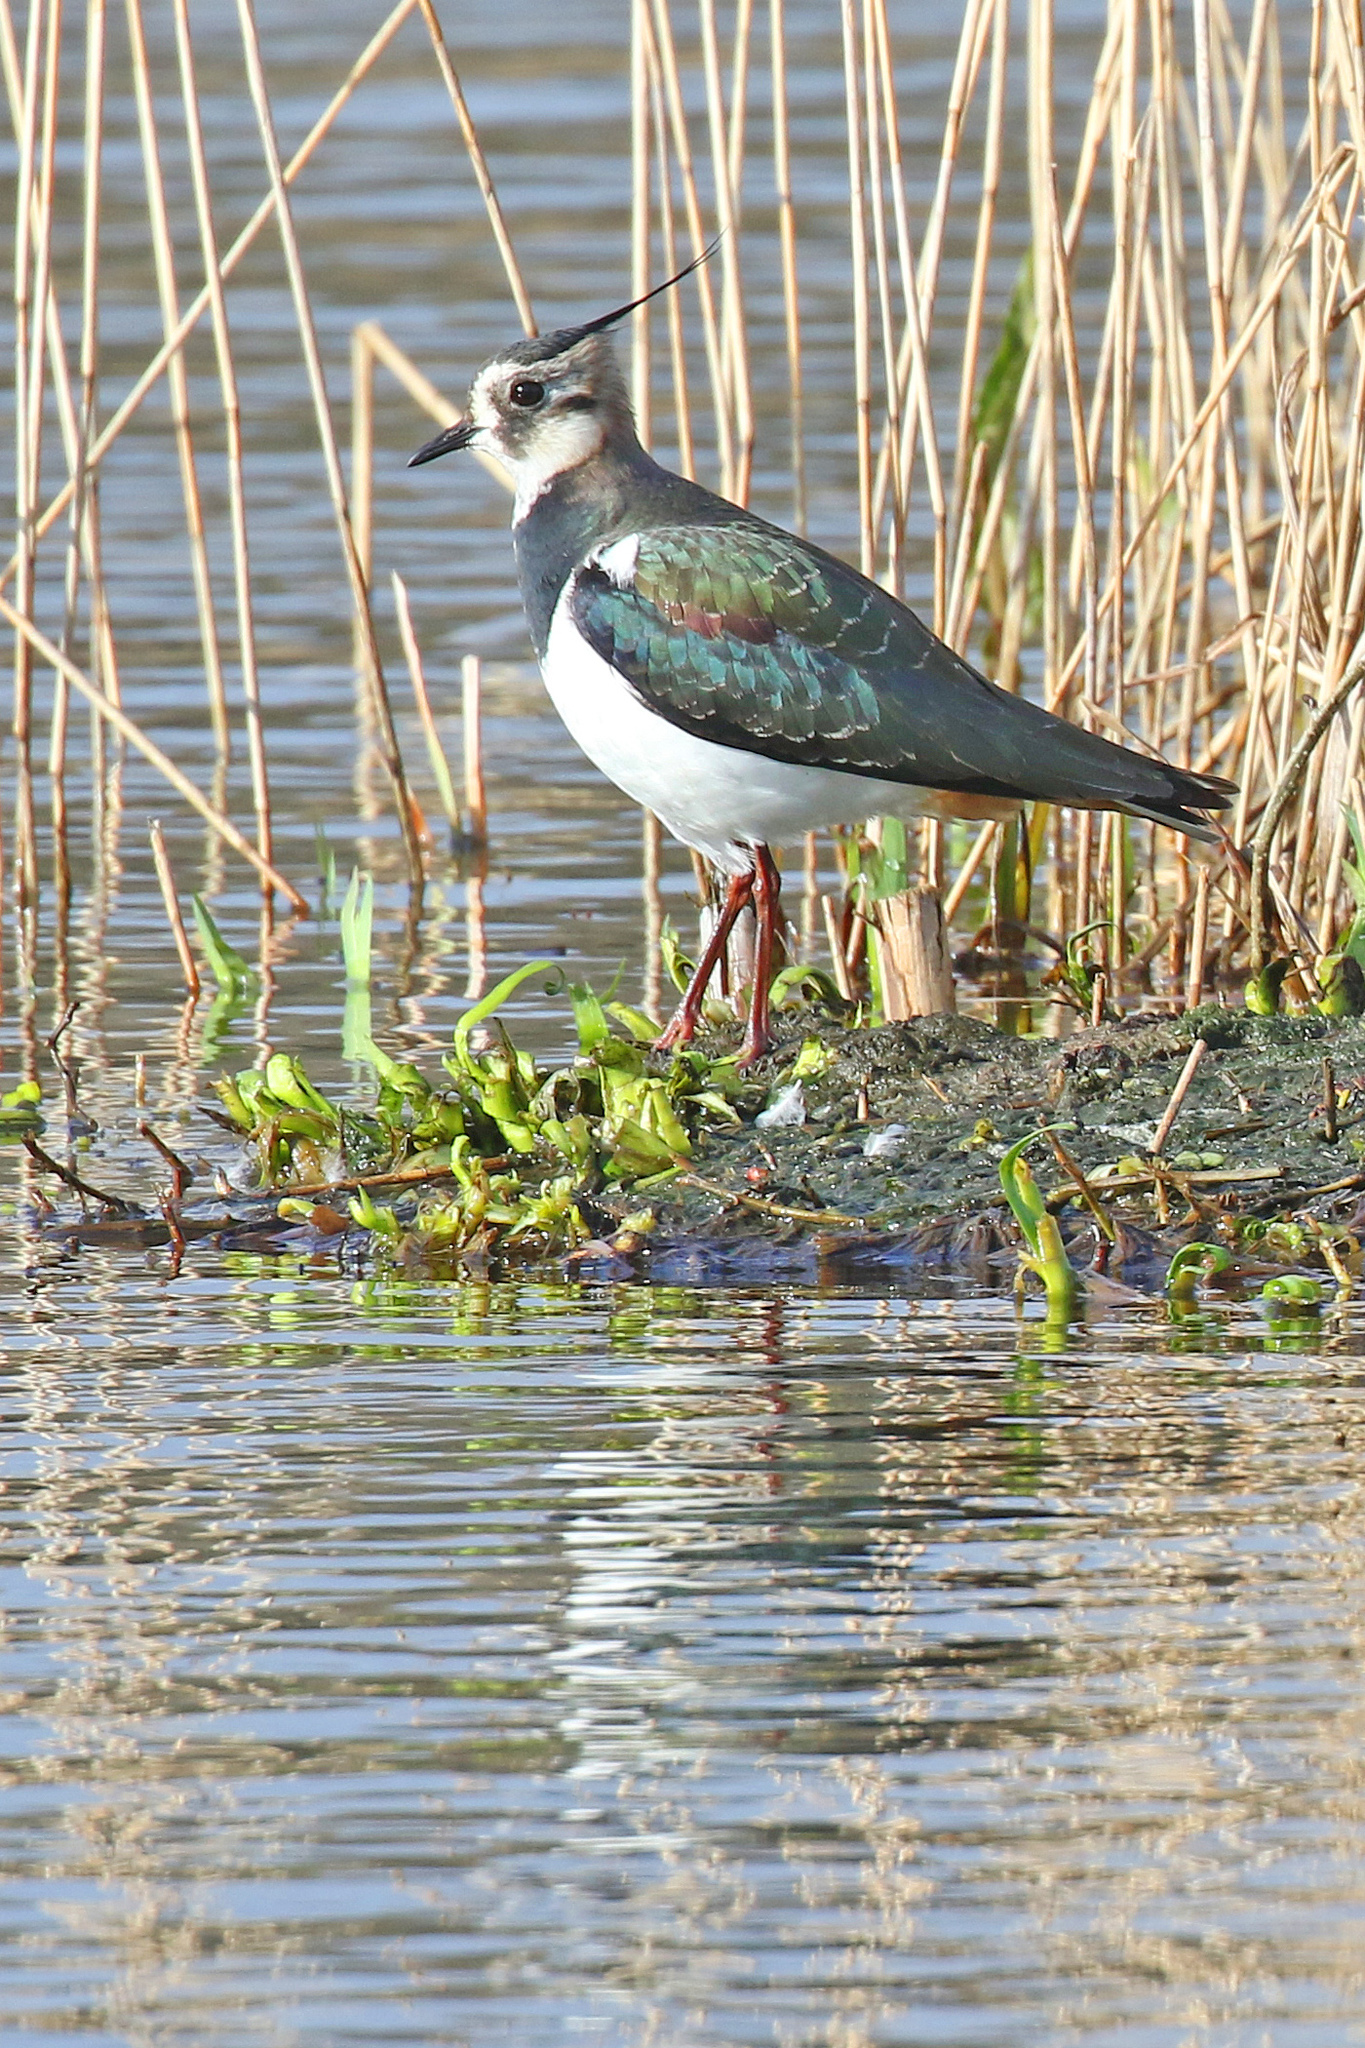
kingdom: Animalia
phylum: Chordata
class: Aves
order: Charadriiformes
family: Charadriidae
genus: Vanellus
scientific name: Vanellus vanellus
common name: Northern lapwing
